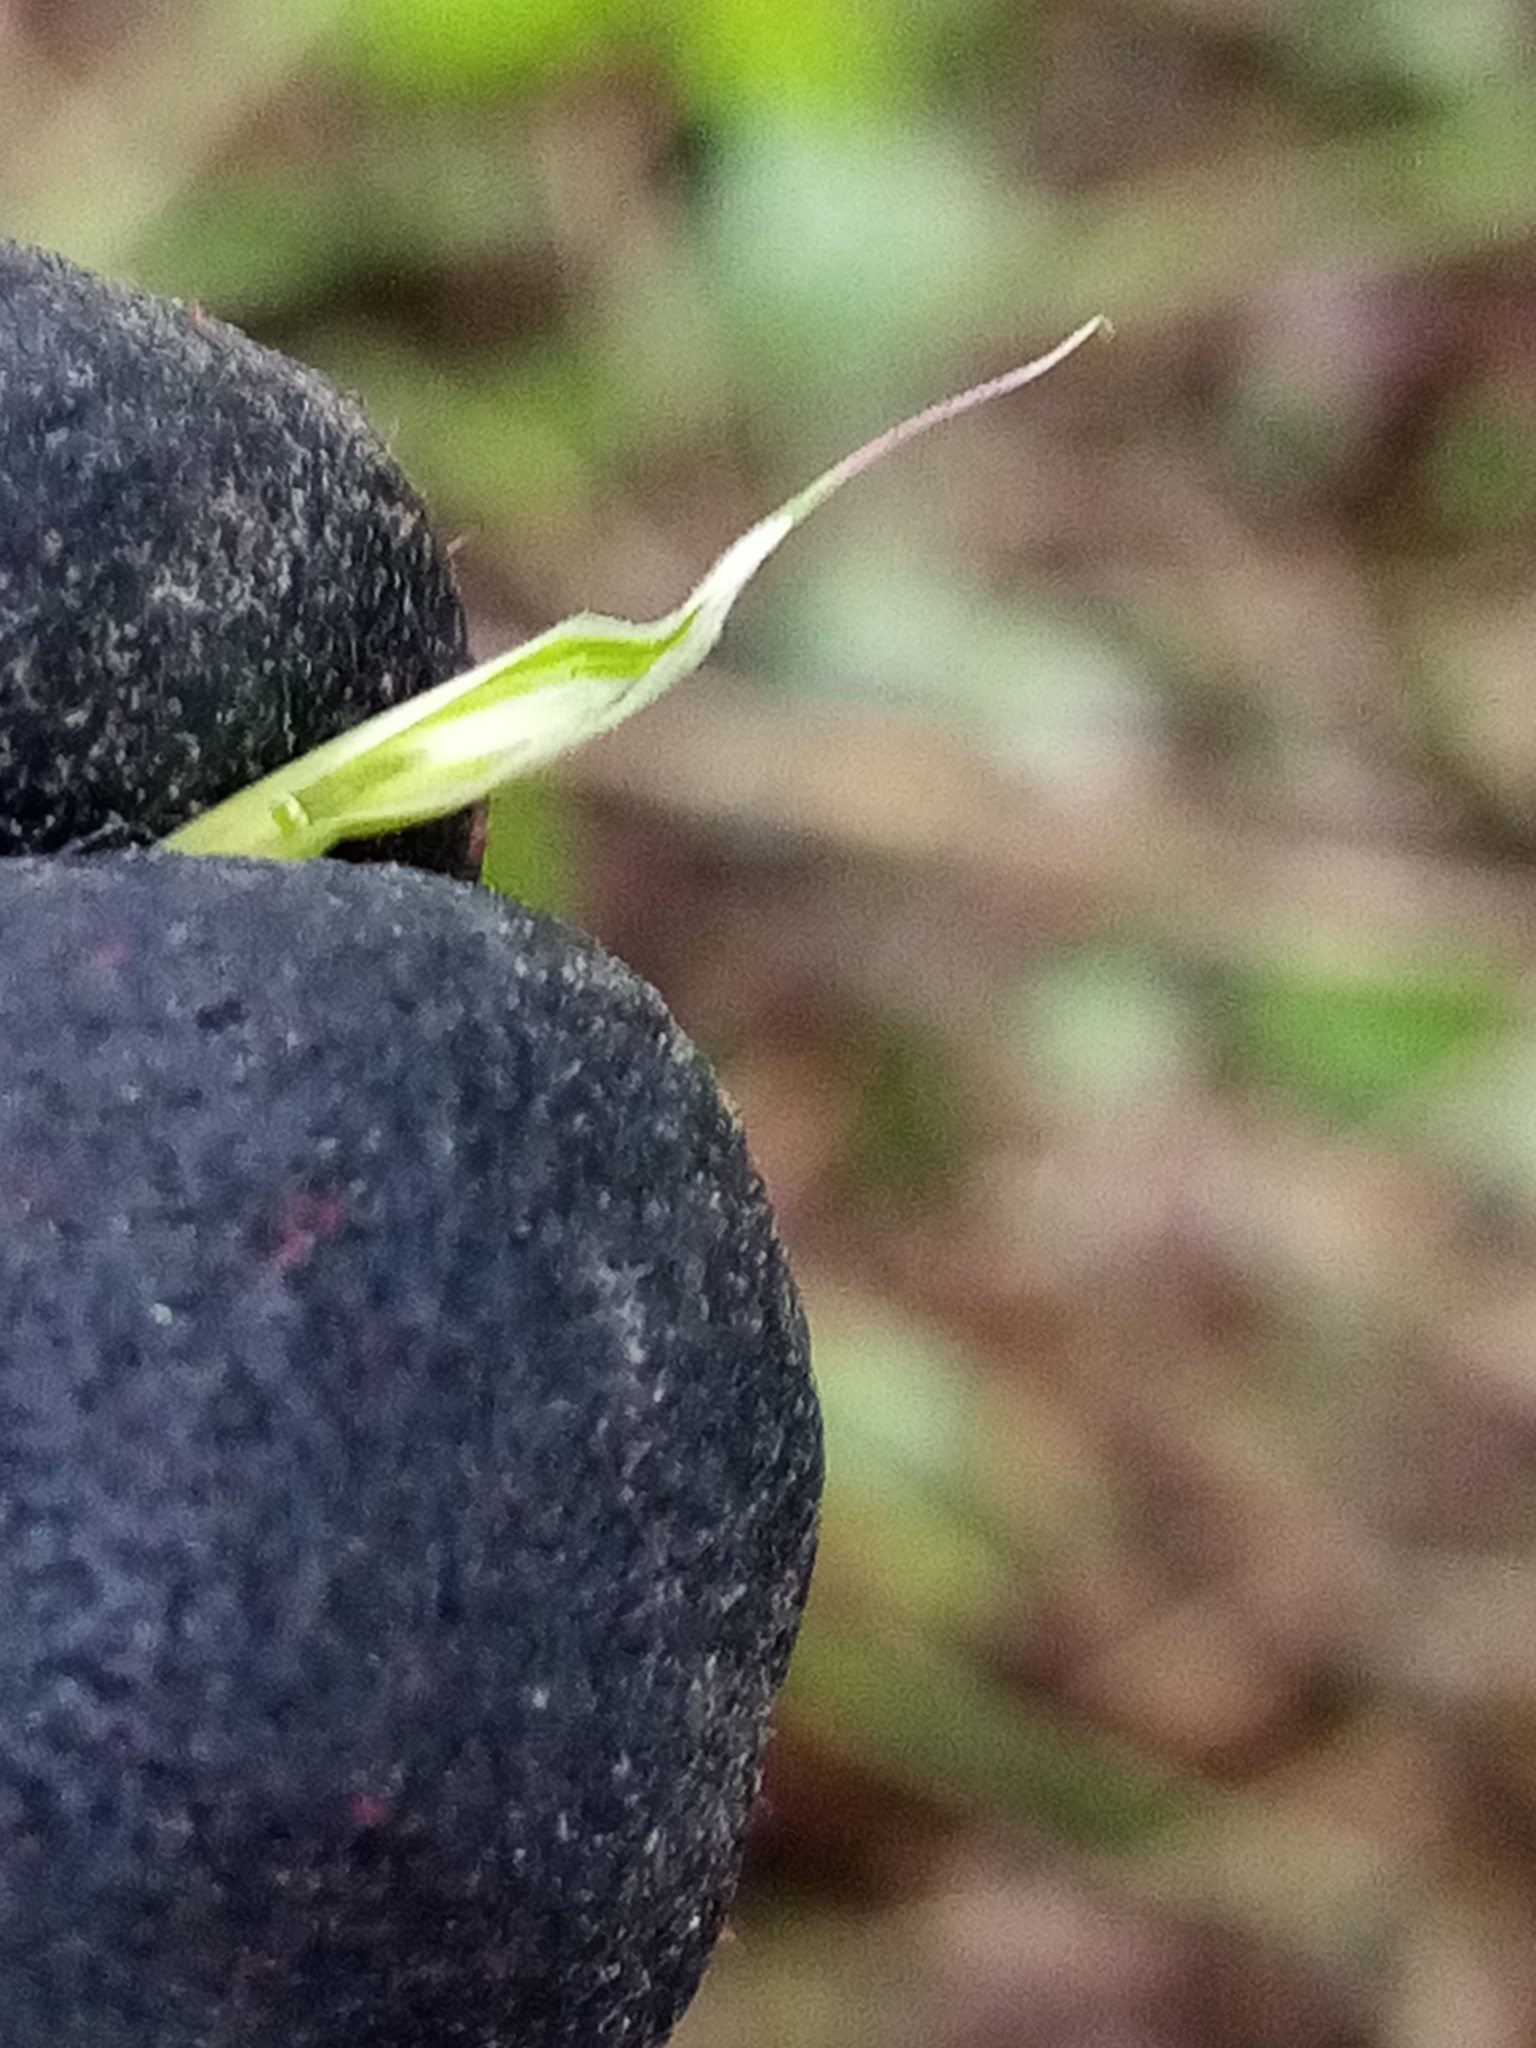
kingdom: Plantae
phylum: Tracheophyta
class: Liliopsida
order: Poales
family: Poaceae
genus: Bromus
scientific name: Bromus cebadilla
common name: Southern brome
